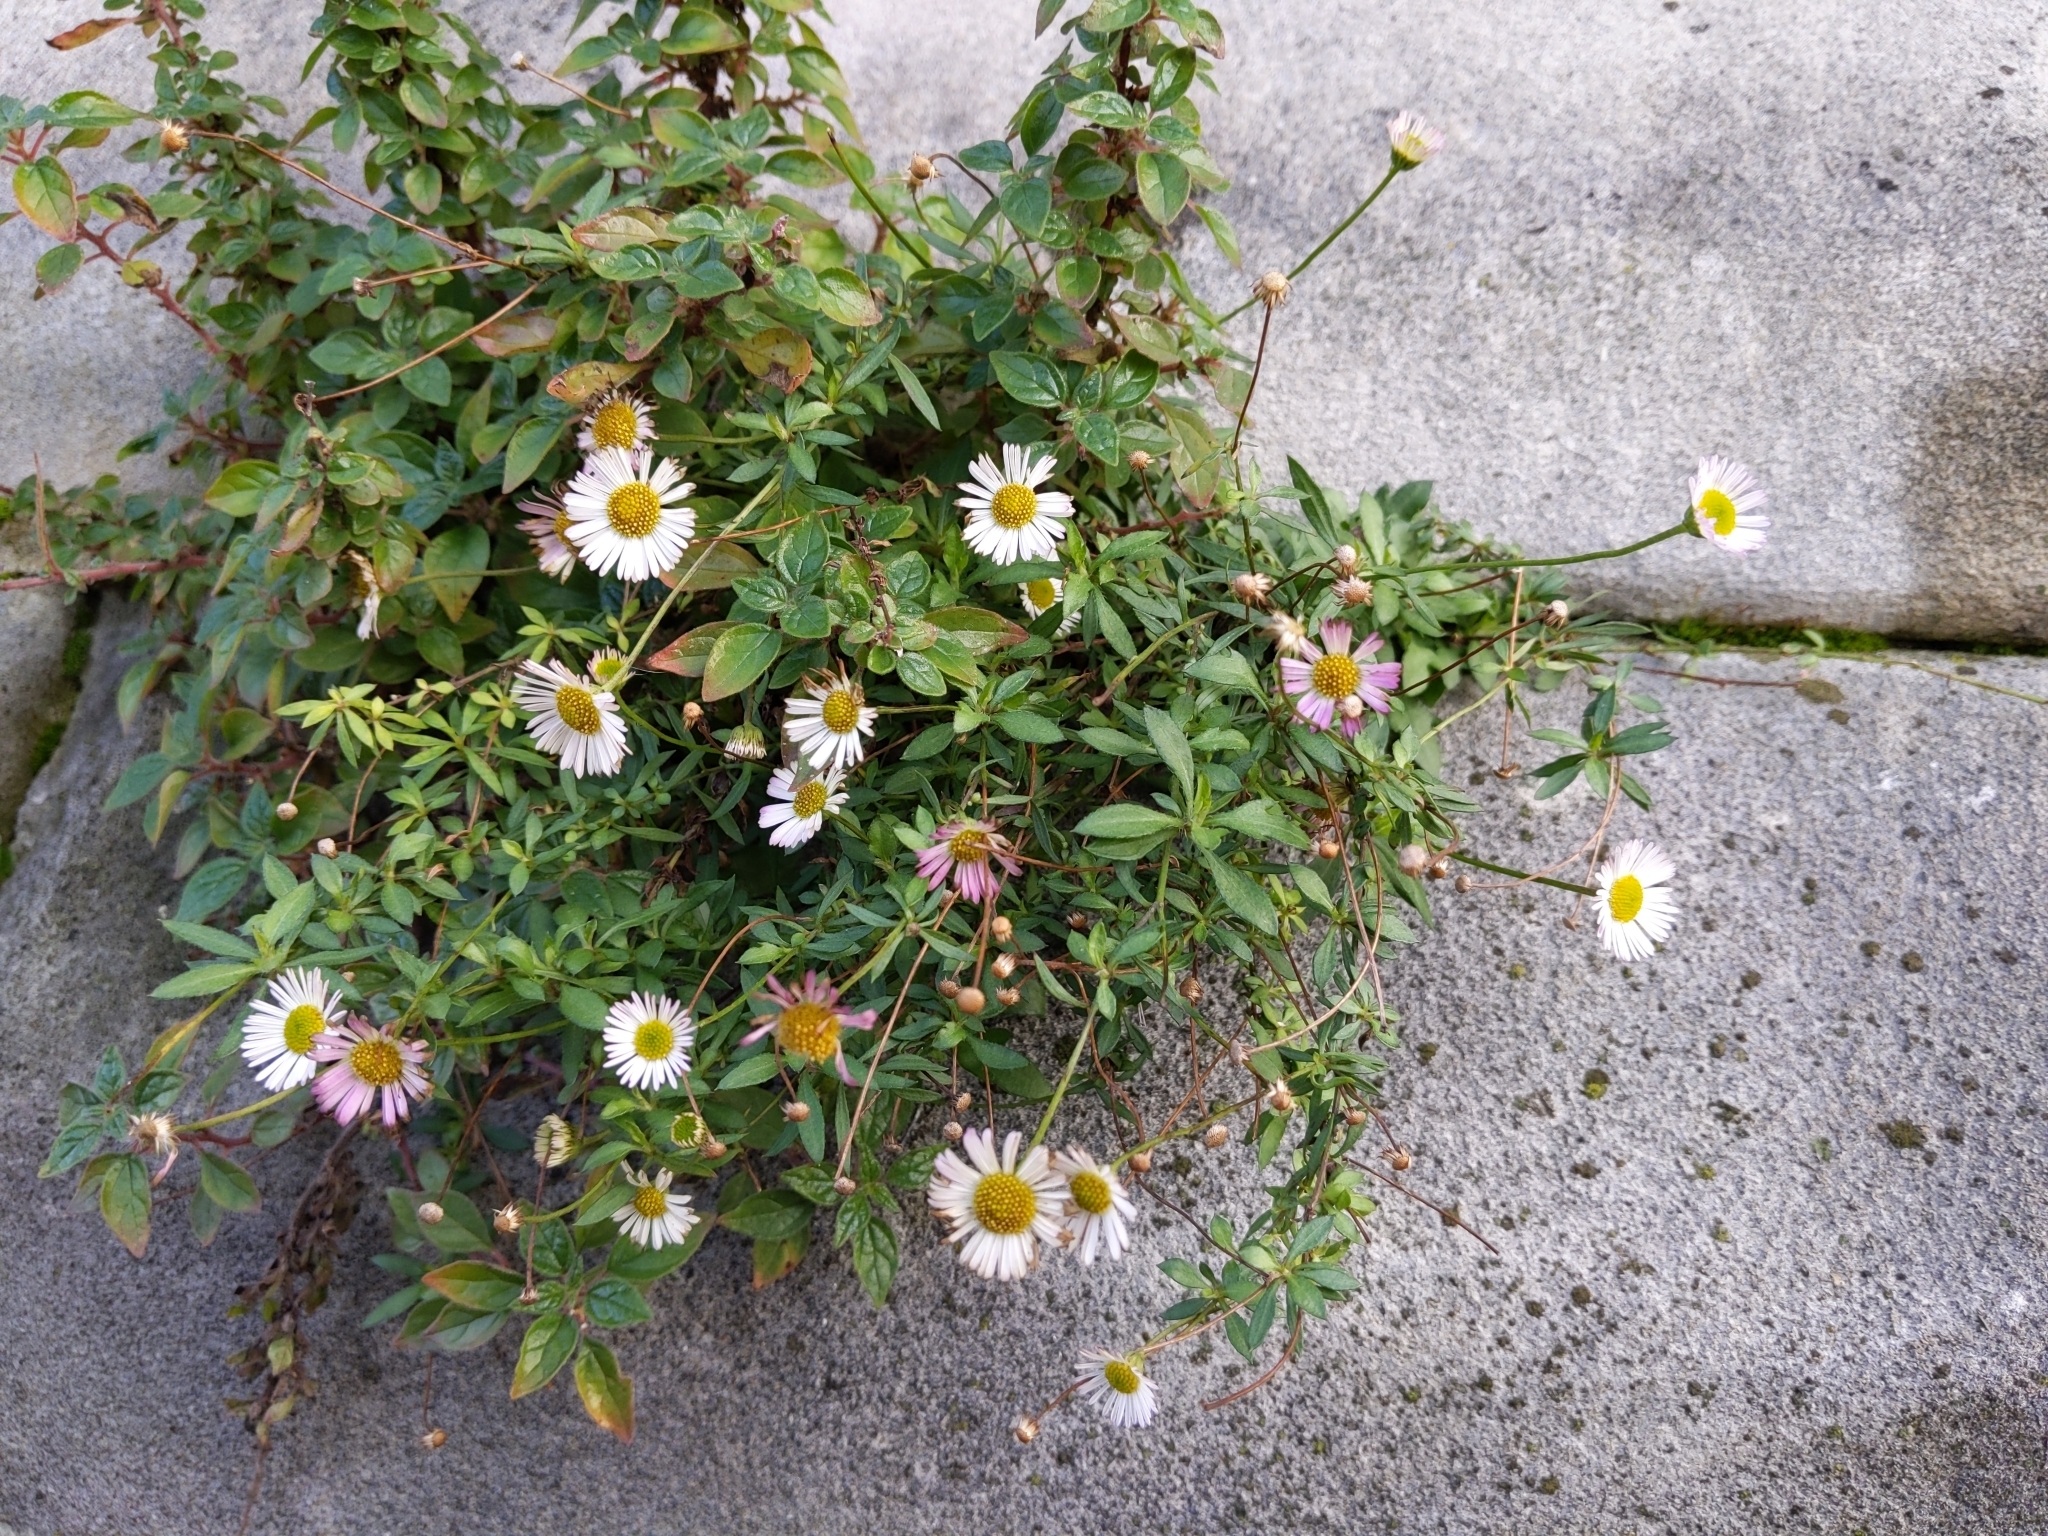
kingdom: Plantae
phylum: Tracheophyta
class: Magnoliopsida
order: Asterales
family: Asteraceae
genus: Erigeron
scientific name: Erigeron karvinskianus
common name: Mexican fleabane
